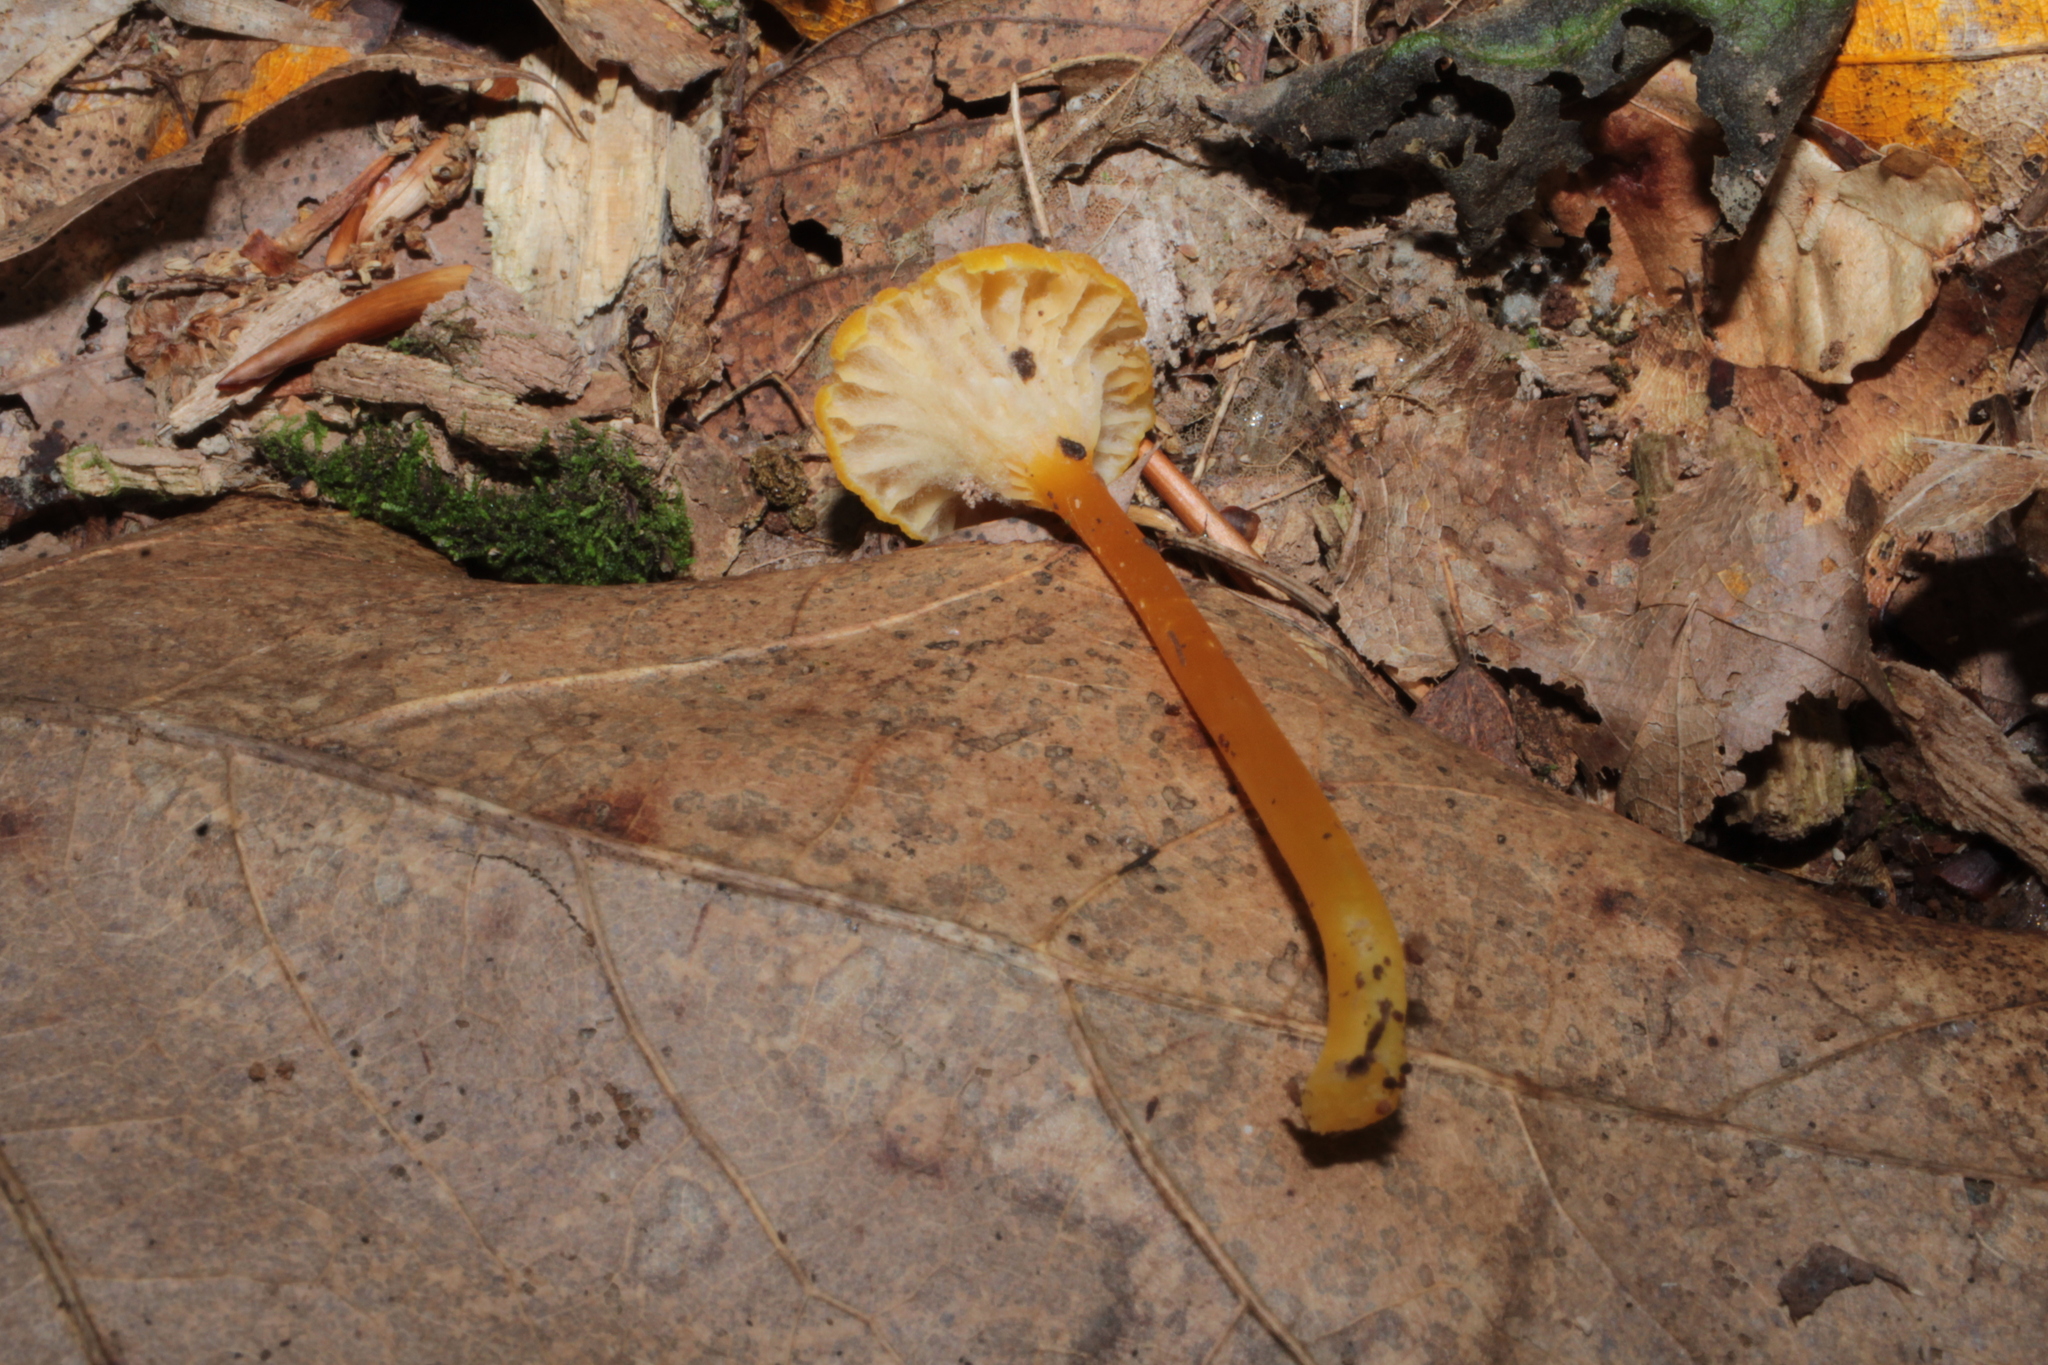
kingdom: Fungi
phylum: Basidiomycota
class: Agaricomycetes
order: Agaricales
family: Hygrophoraceae
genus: Hygrocybe
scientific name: Hygrocybe cantharellus
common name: Goblet waxcap
